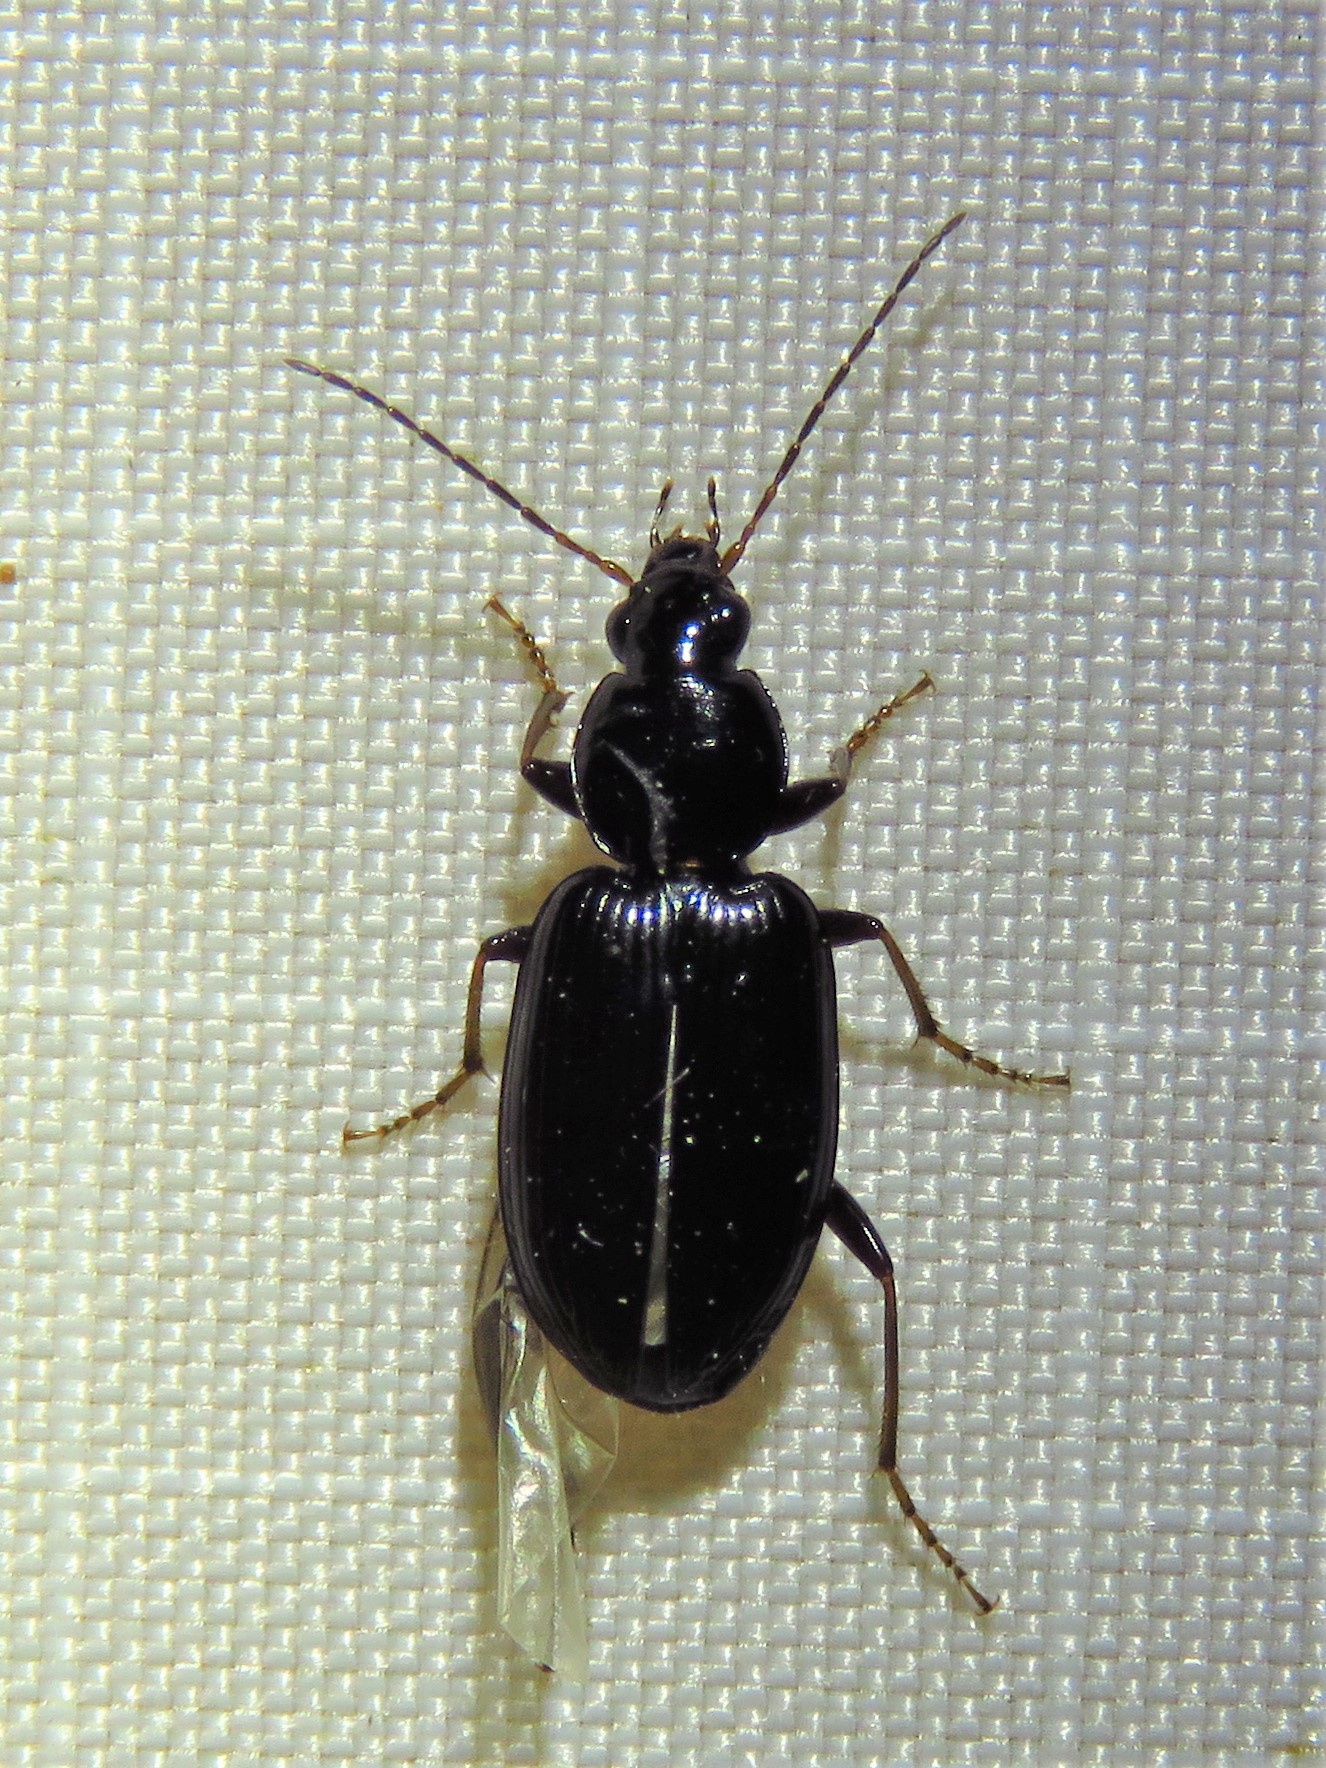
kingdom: Animalia
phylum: Arthropoda
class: Insecta
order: Coleoptera
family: Carabidae
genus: Agonum
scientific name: Agonum punctiforme
